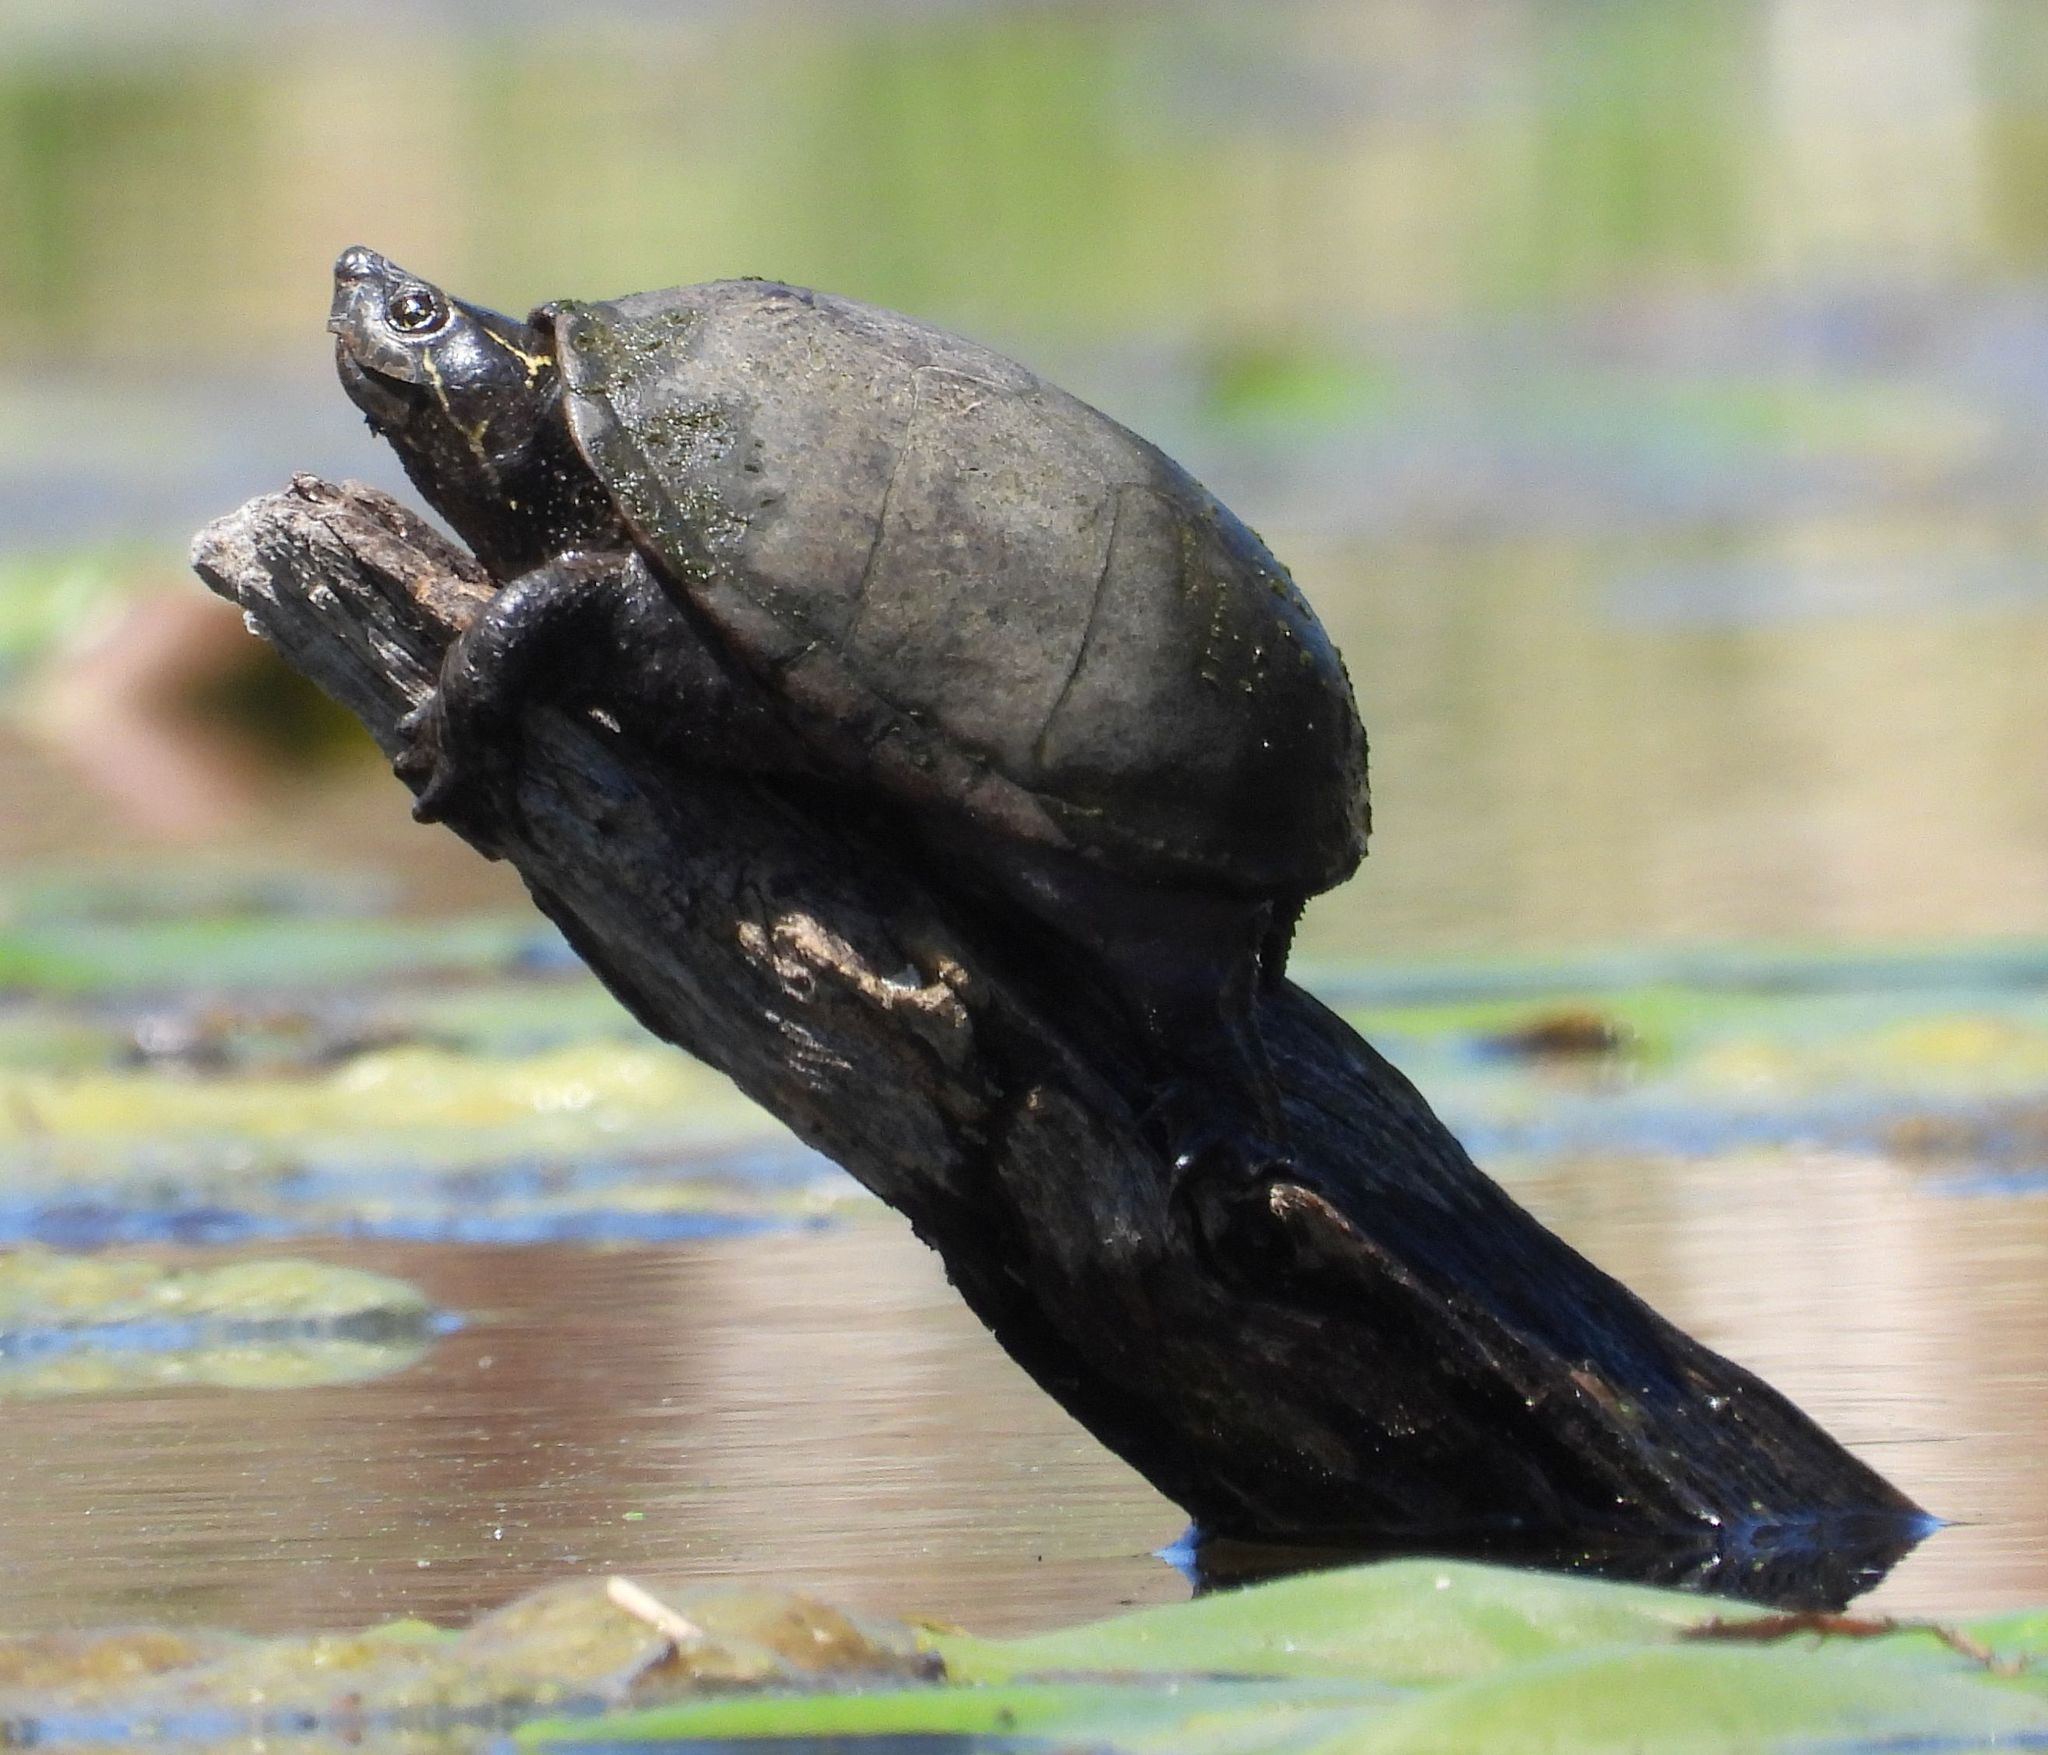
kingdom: Animalia
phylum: Chordata
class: Testudines
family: Kinosternidae
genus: Sternotherus
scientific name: Sternotherus odoratus
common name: Common musk turtle
